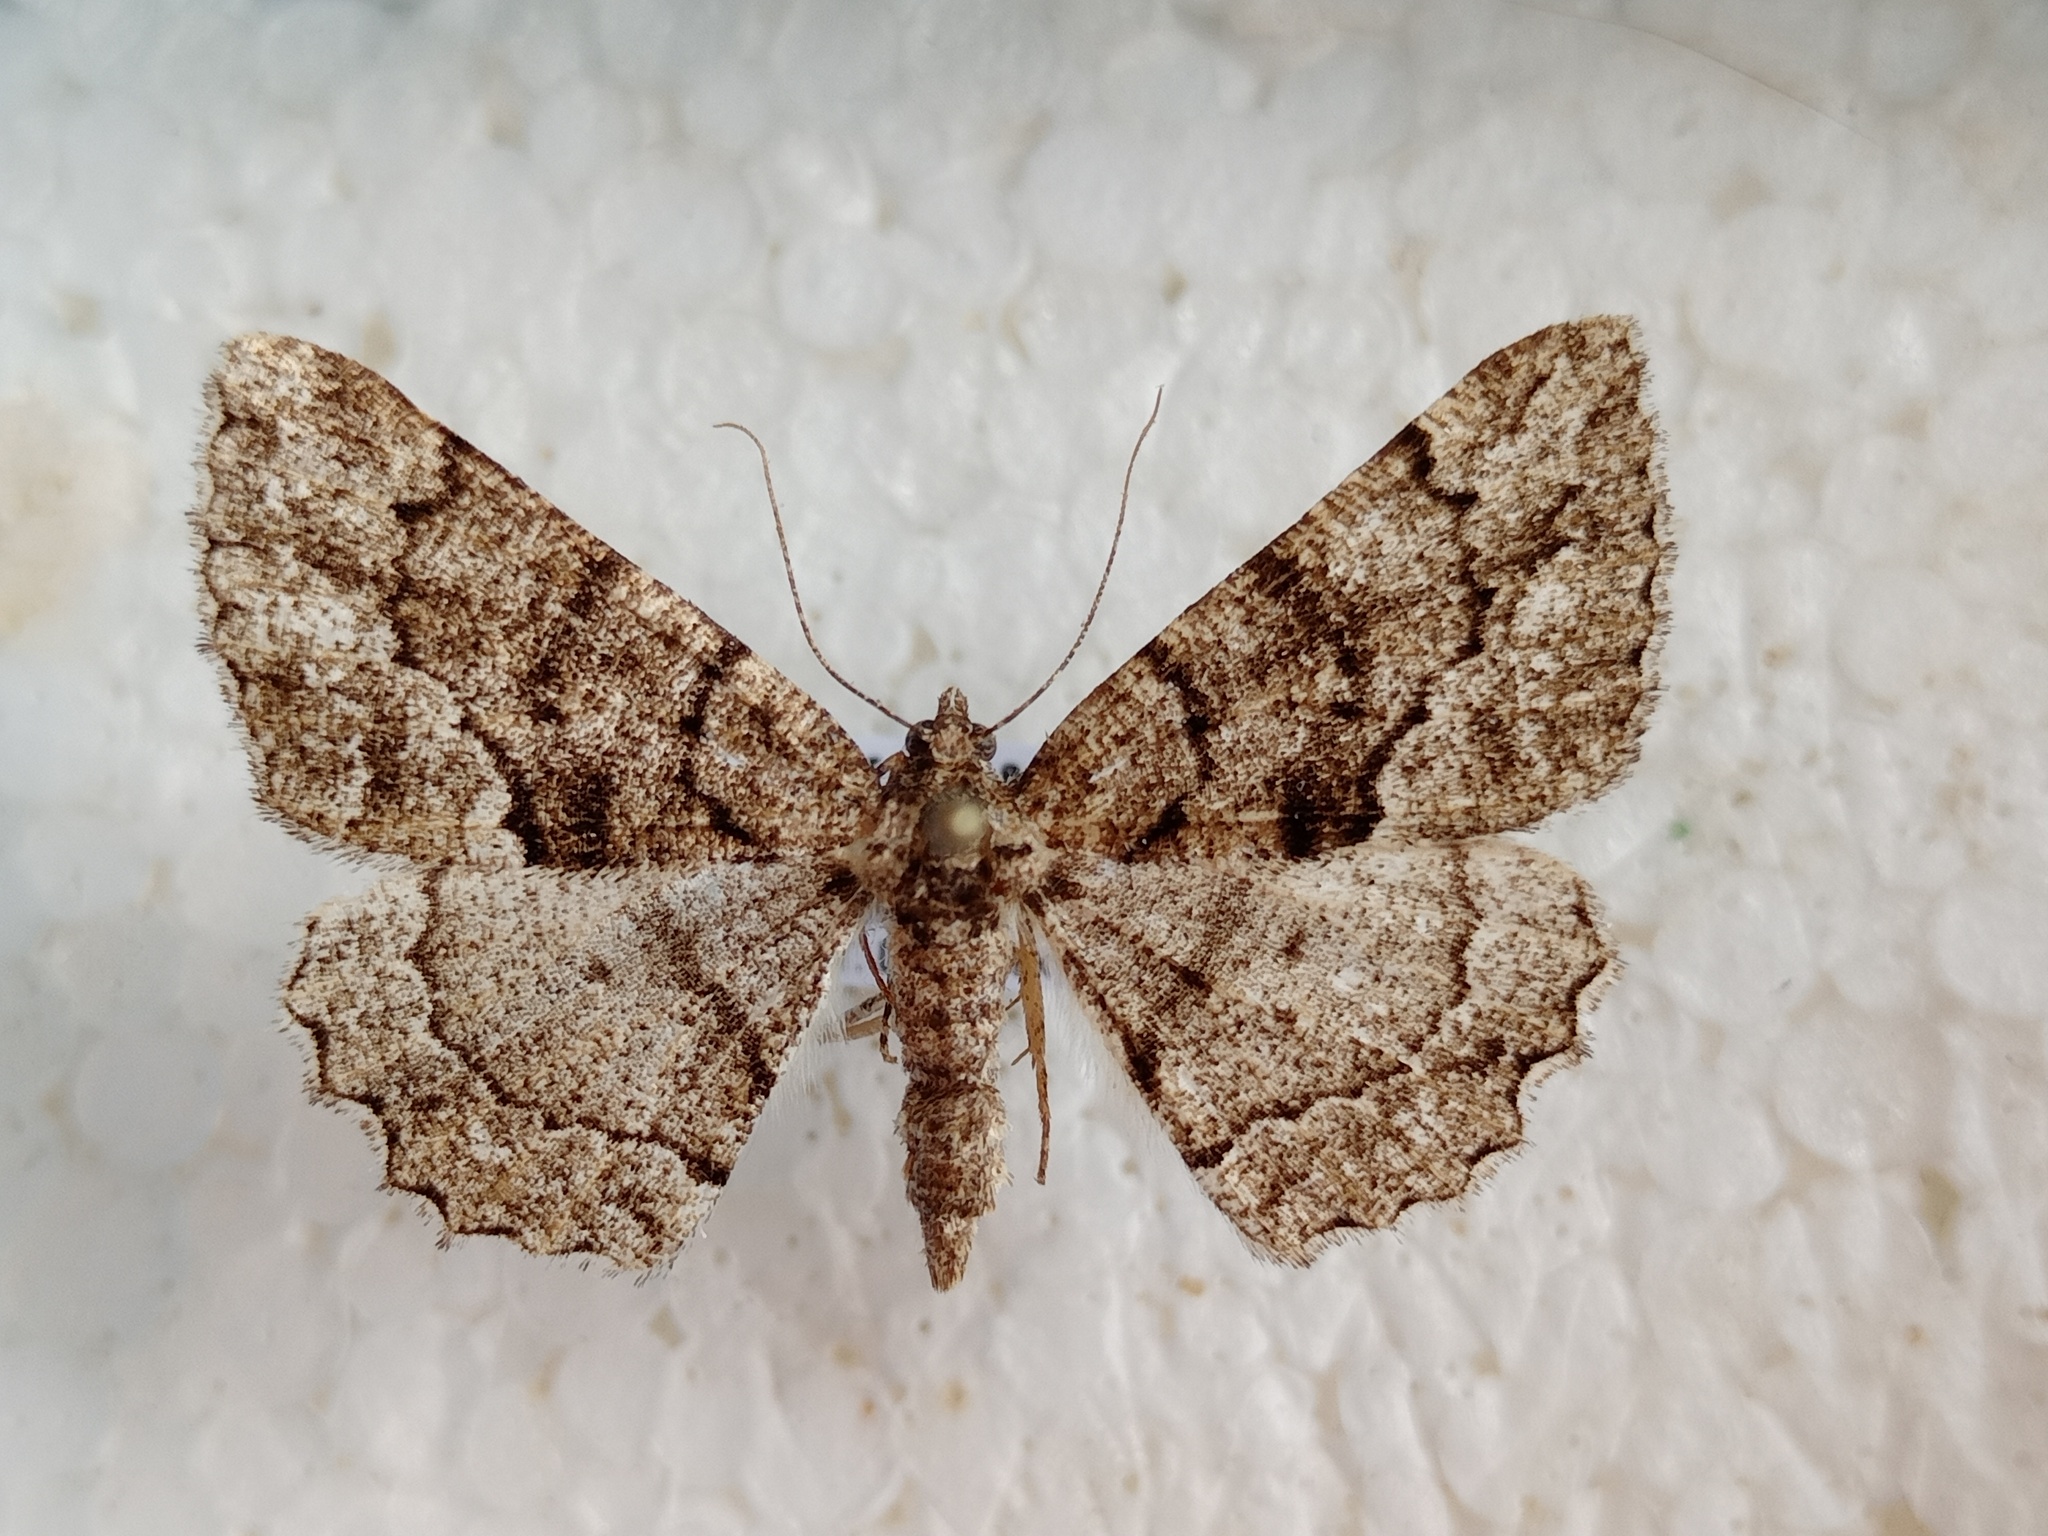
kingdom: Animalia
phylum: Arthropoda
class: Insecta
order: Lepidoptera
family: Geometridae
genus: Peribatodes
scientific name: Peribatodes ilicaria
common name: Lydd beauty
